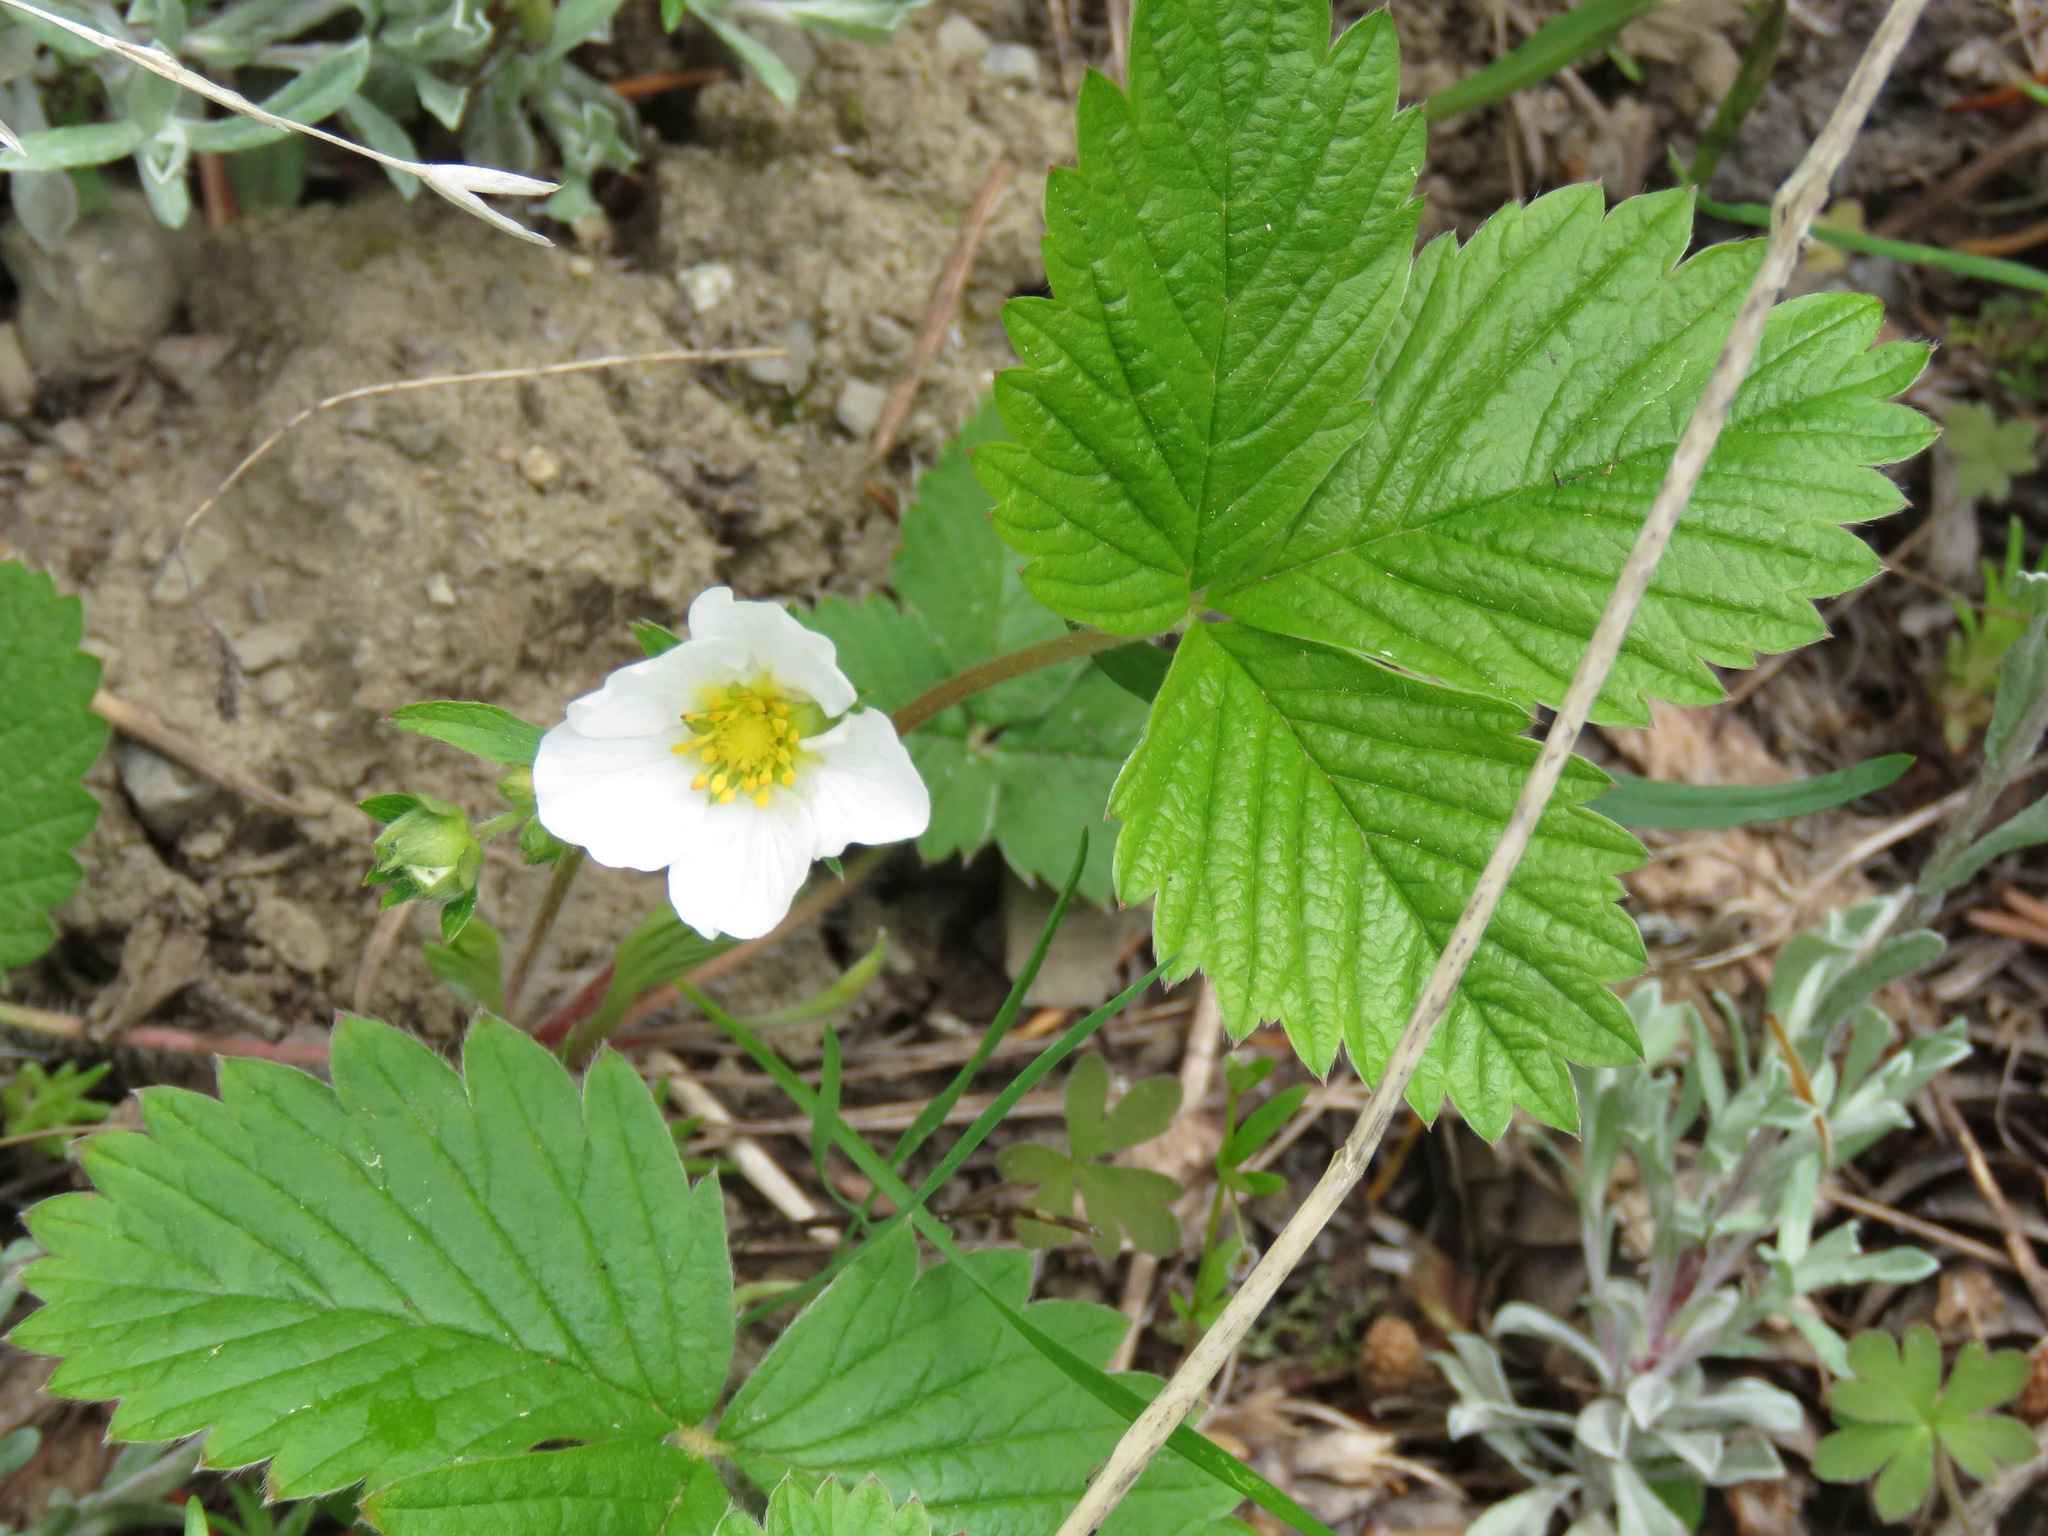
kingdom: Plantae
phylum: Tracheophyta
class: Magnoliopsida
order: Rosales
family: Rosaceae
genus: Fragaria
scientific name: Fragaria vesca
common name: Wild strawberry
